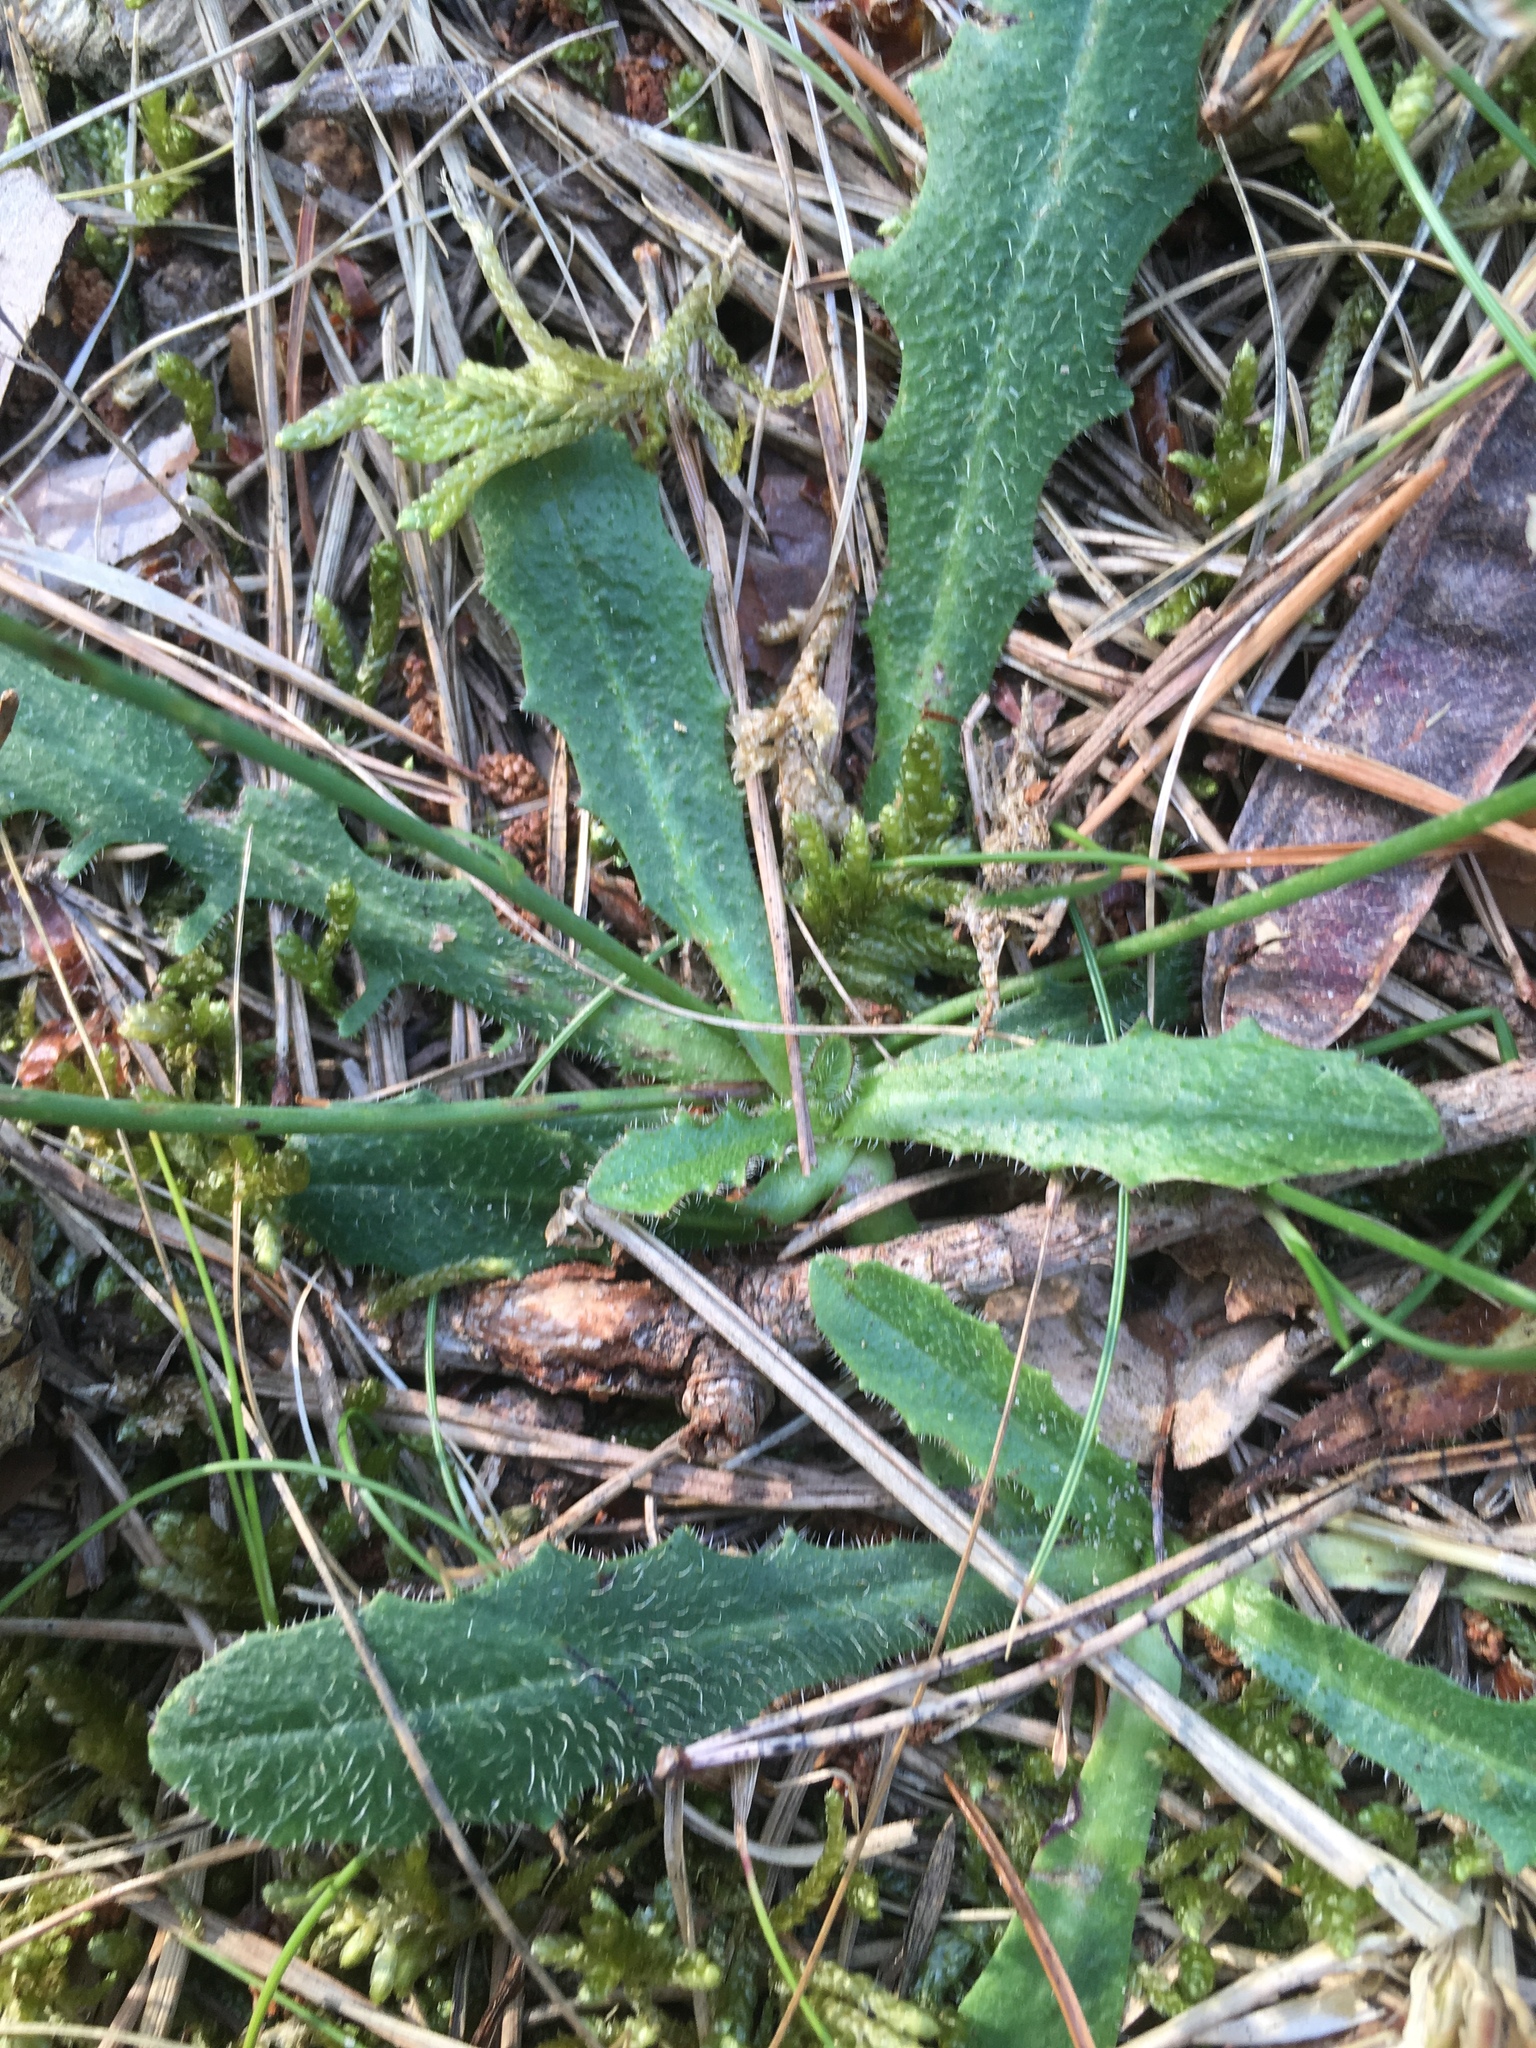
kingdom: Plantae
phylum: Tracheophyta
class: Magnoliopsida
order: Asterales
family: Asteraceae
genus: Hypochaeris
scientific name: Hypochaeris radicata
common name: Flatweed
